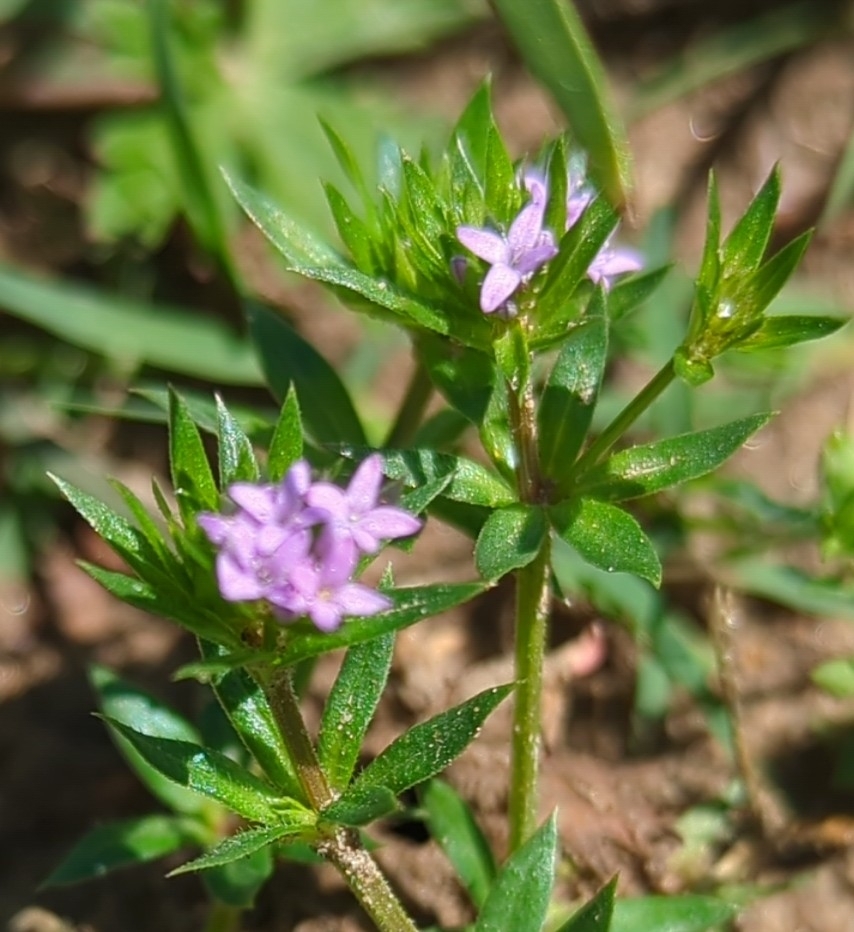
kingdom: Plantae
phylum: Tracheophyta
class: Magnoliopsida
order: Gentianales
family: Rubiaceae
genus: Sherardia
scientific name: Sherardia arvensis
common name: Field madder
